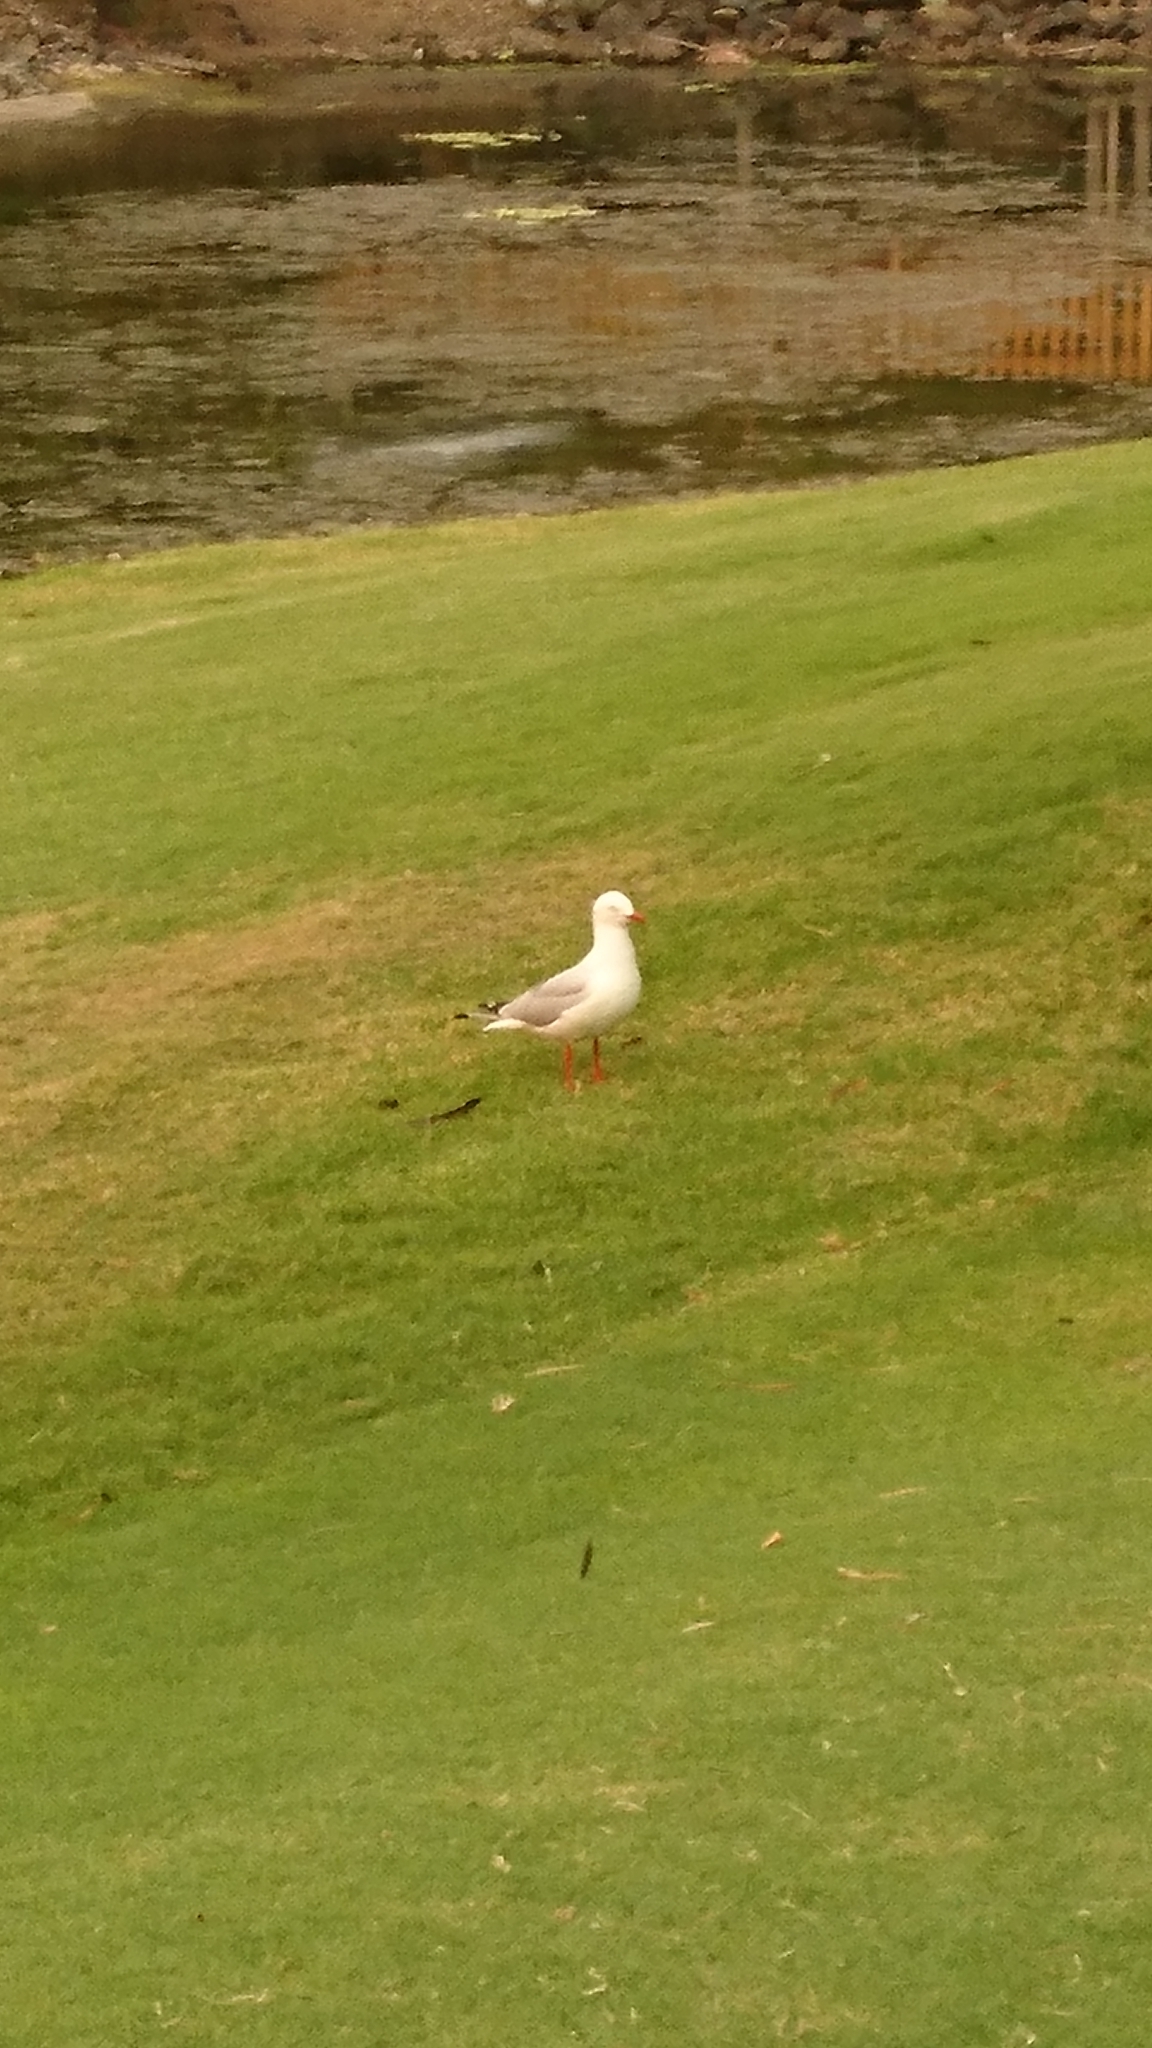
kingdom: Animalia
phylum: Chordata
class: Aves
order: Charadriiformes
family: Laridae
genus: Chroicocephalus
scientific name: Chroicocephalus novaehollandiae
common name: Silver gull
